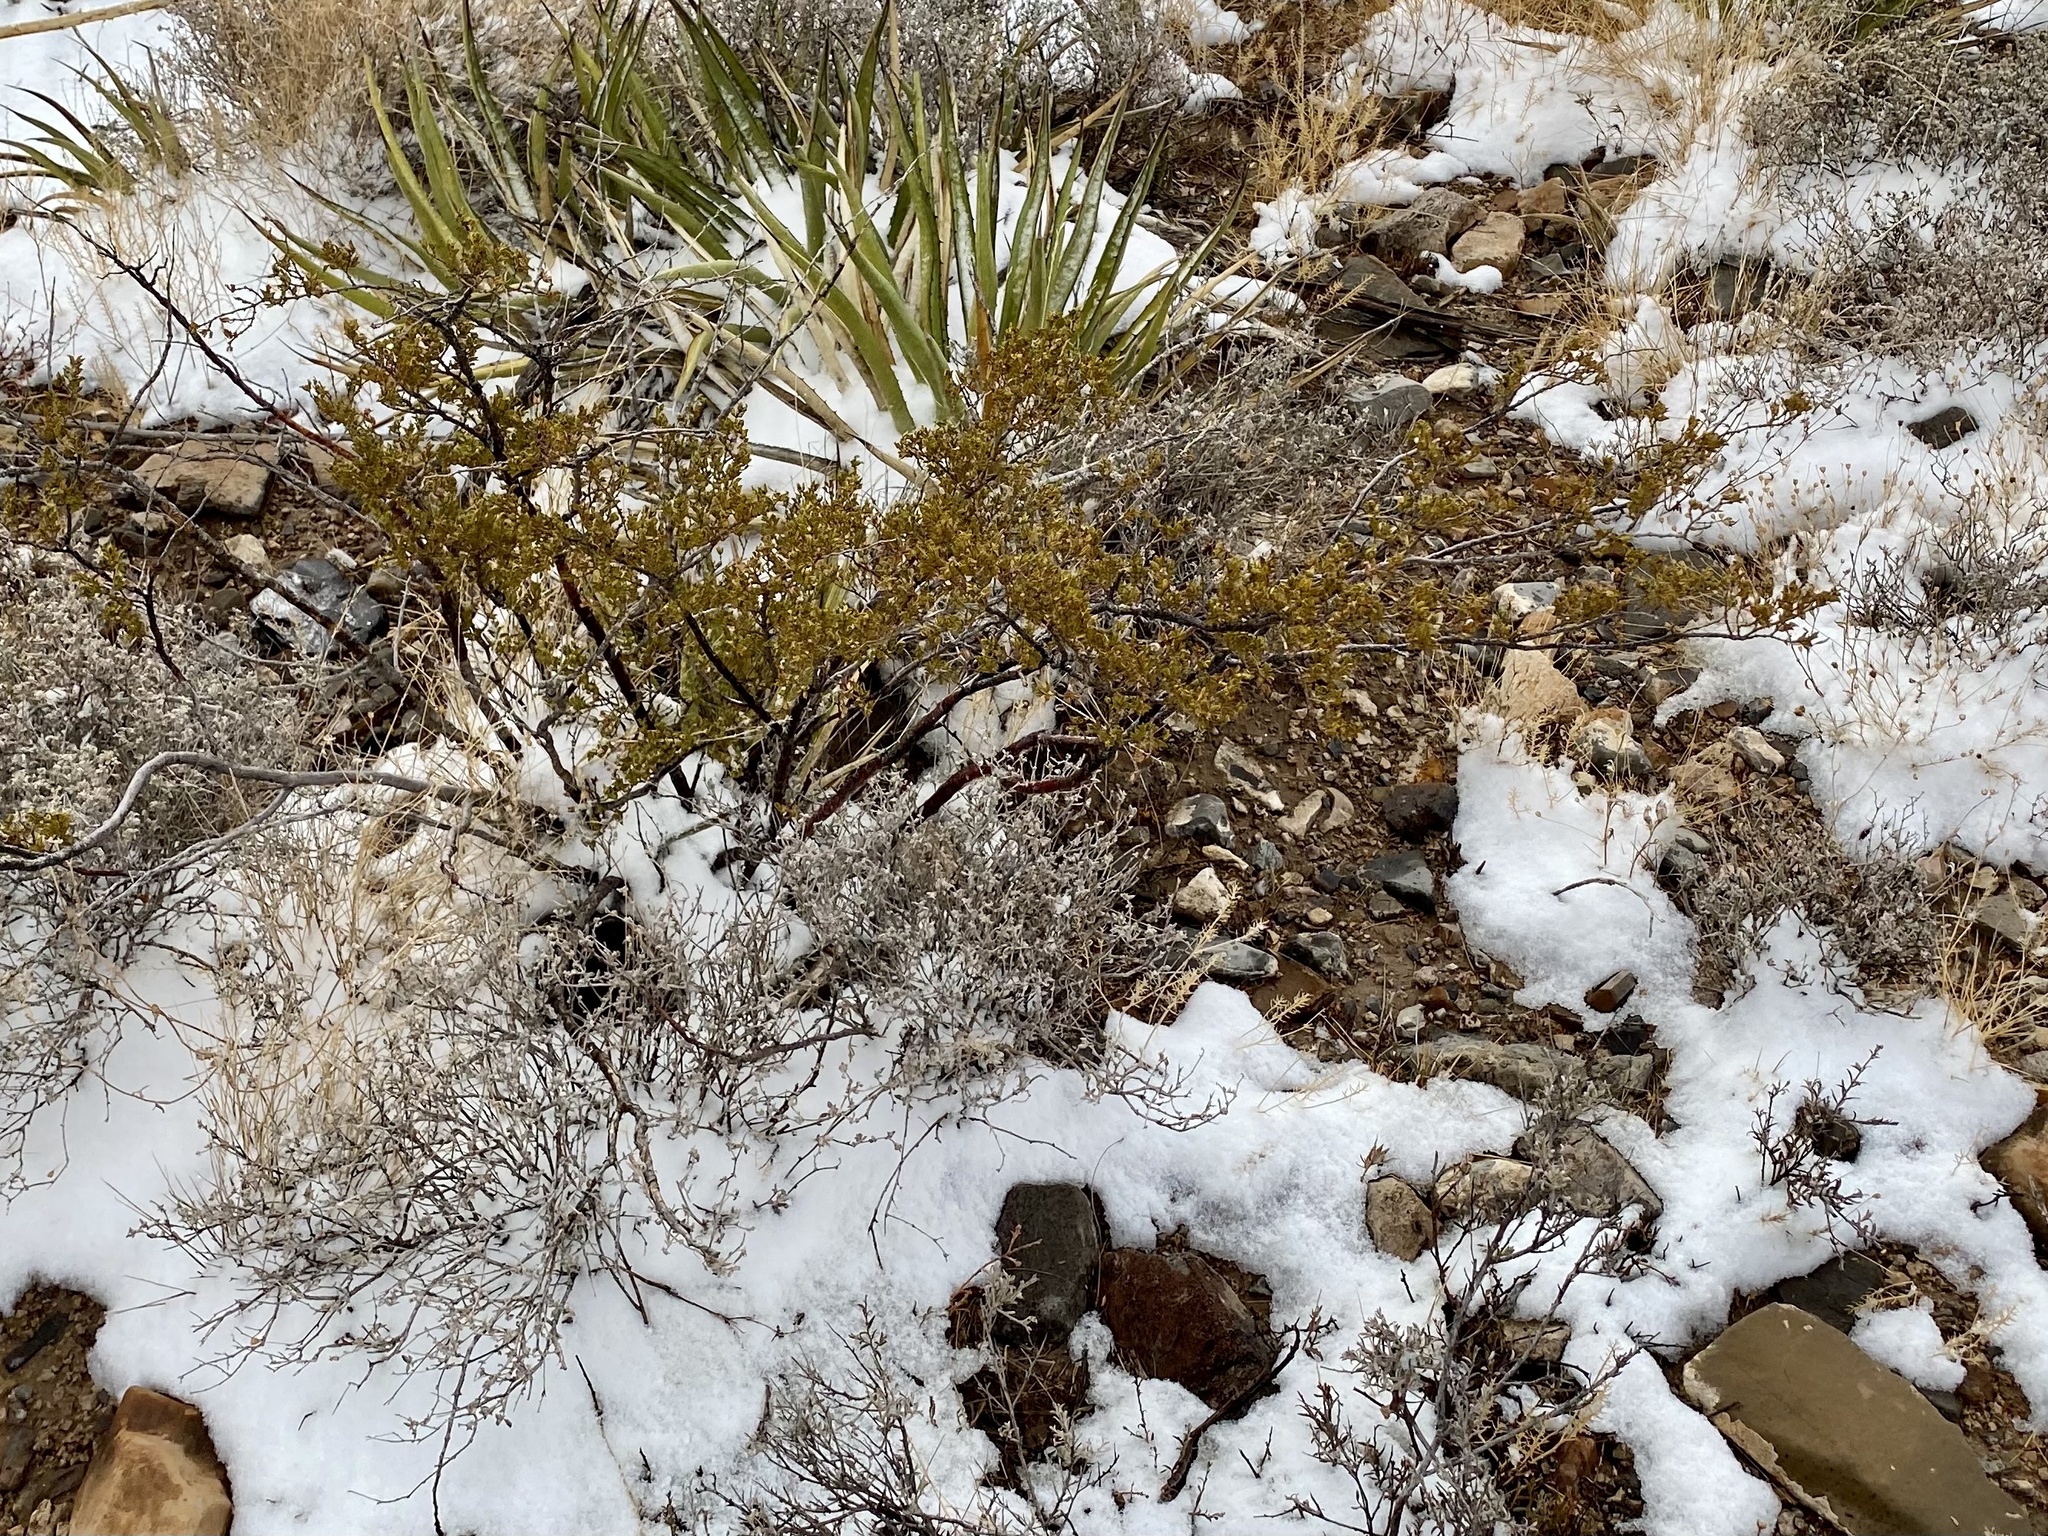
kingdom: Plantae
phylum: Tracheophyta
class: Magnoliopsida
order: Zygophyllales
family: Zygophyllaceae
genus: Larrea
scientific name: Larrea tridentata
